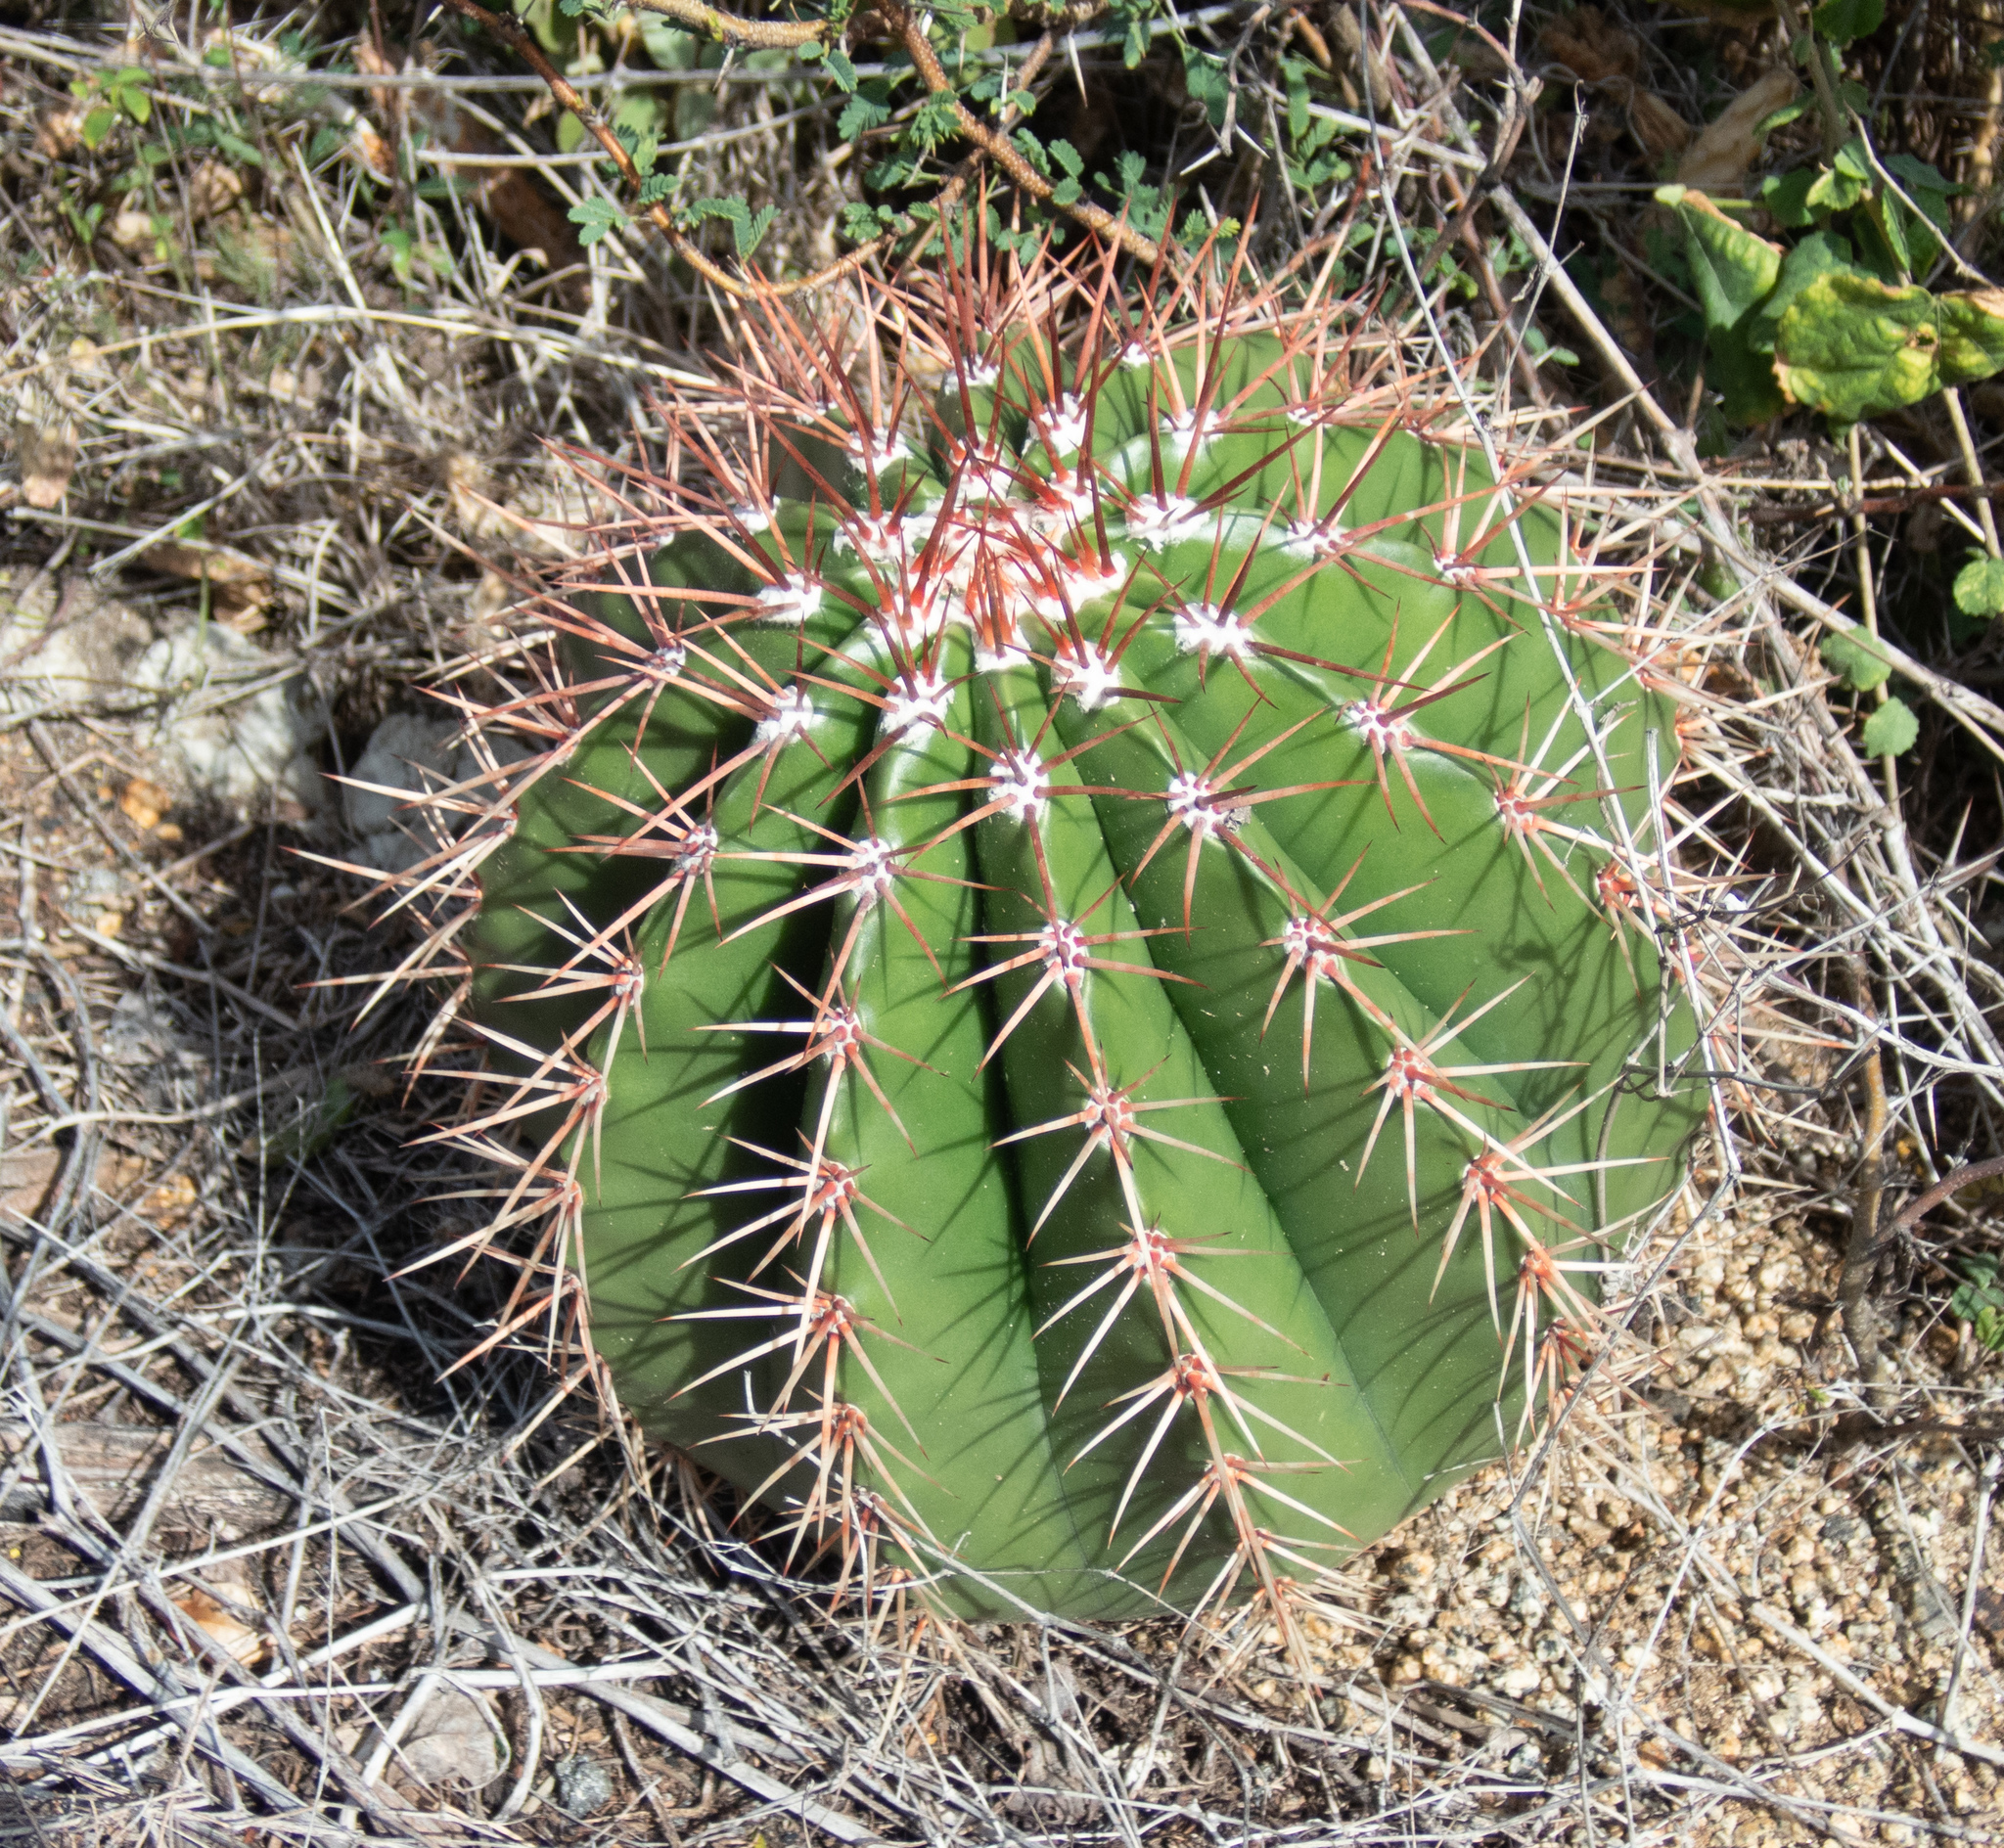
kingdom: Plantae
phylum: Tracheophyta
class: Magnoliopsida
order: Caryophyllales
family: Cactaceae
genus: Melocactus
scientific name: Melocactus intortus
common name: Barrel cactus
